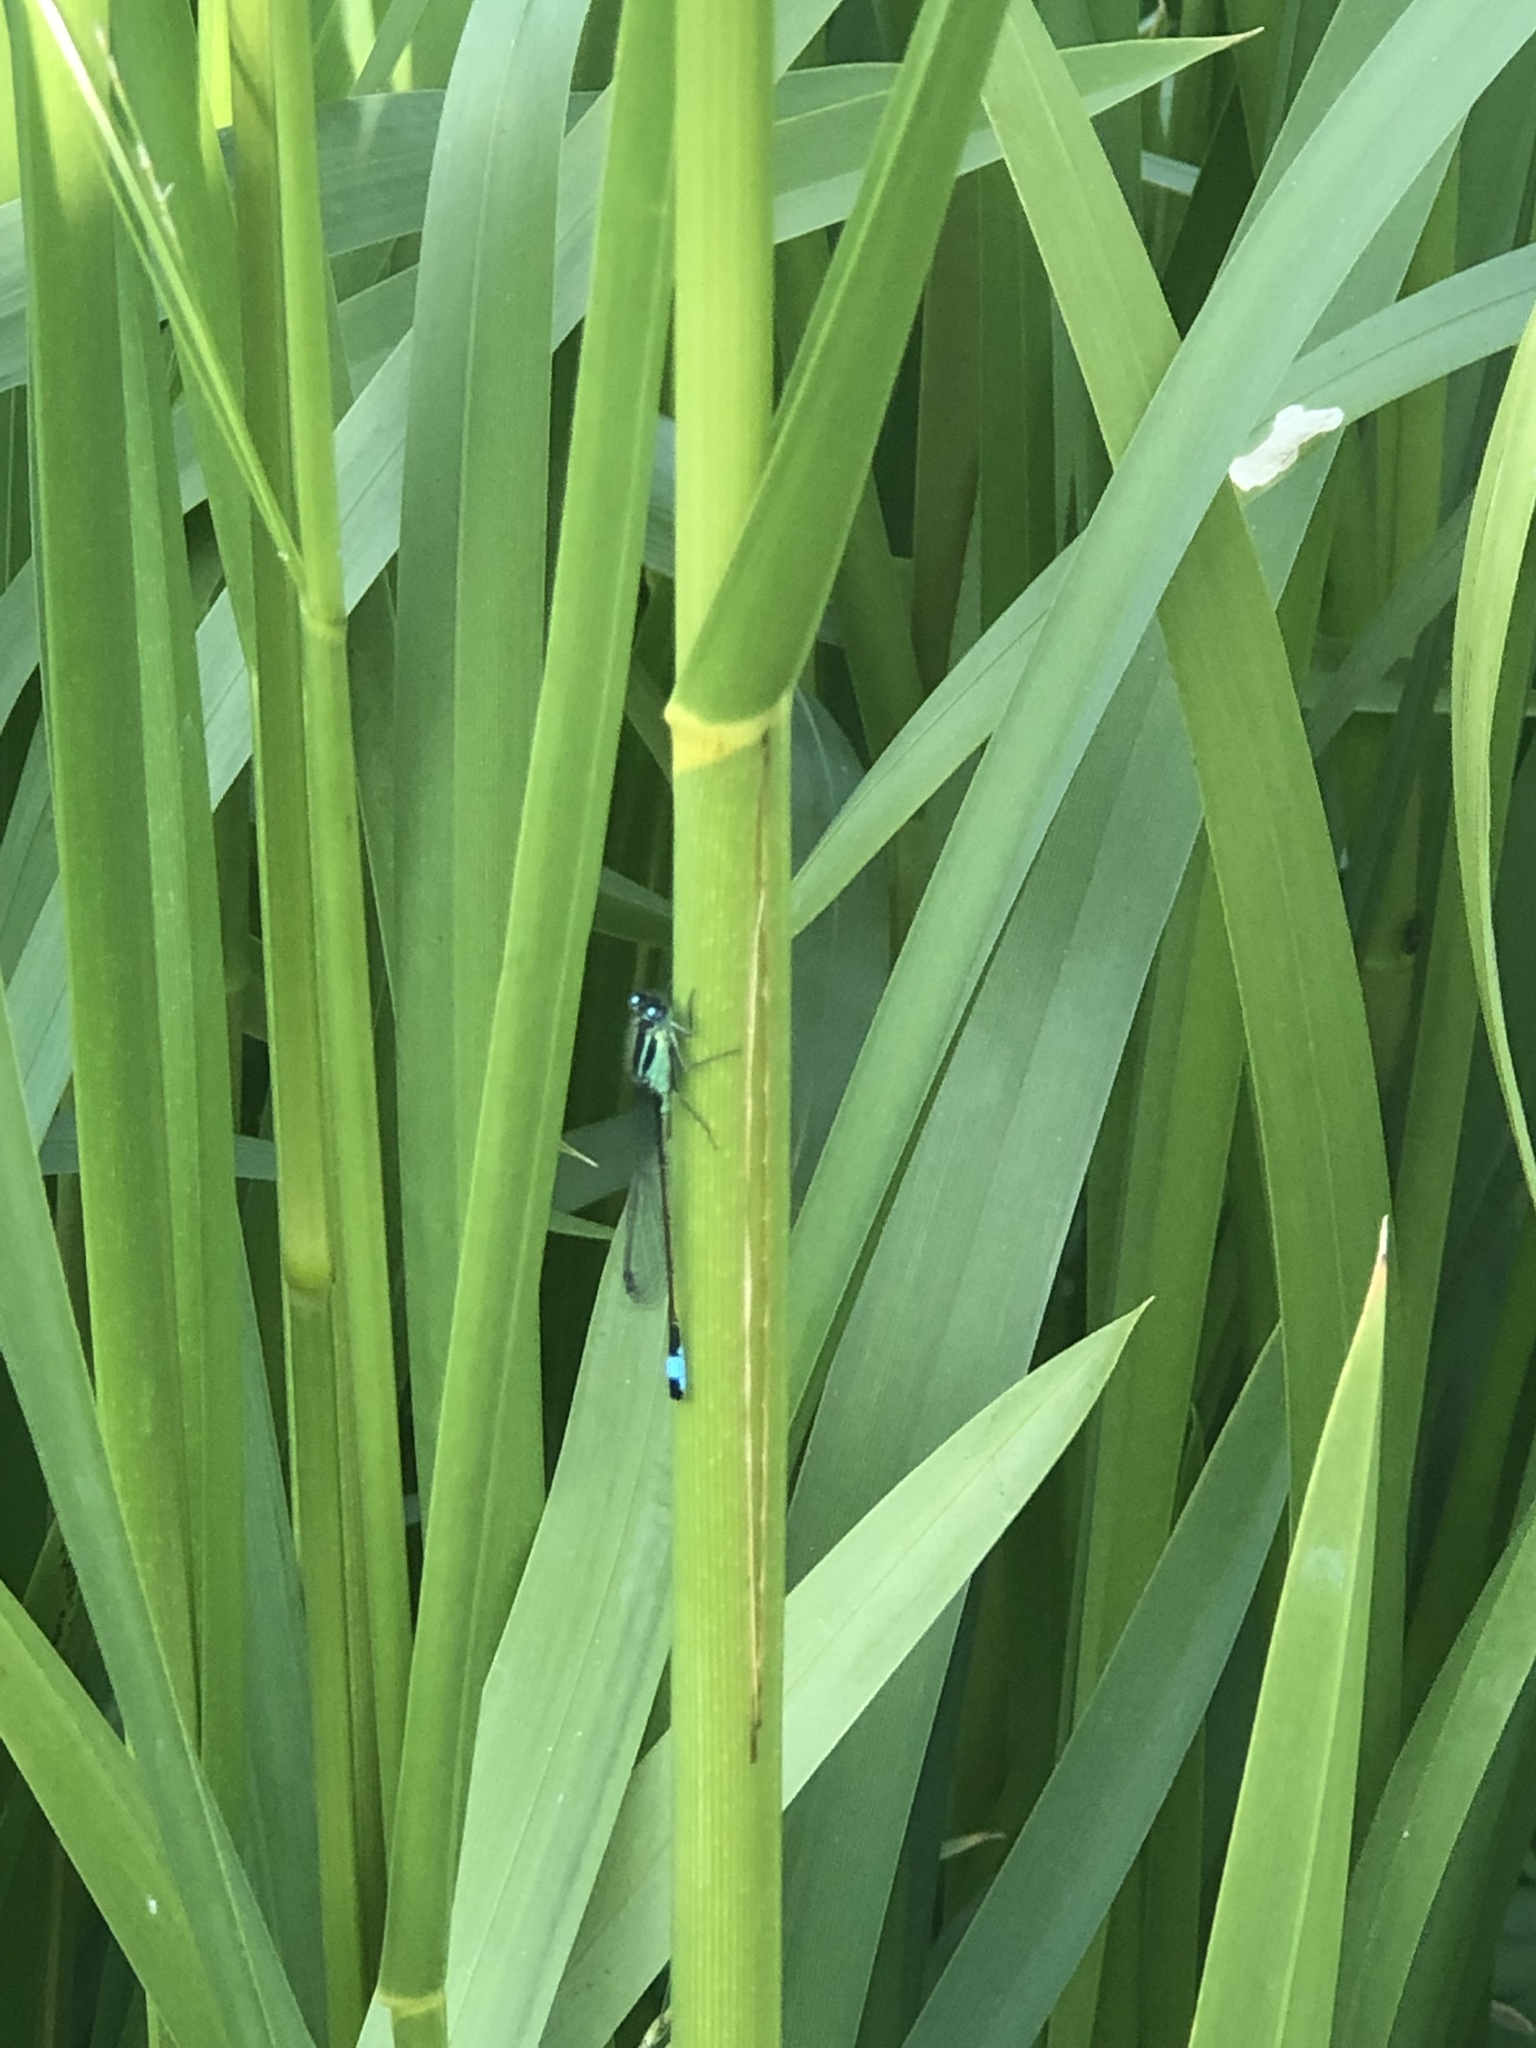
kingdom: Animalia
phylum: Arthropoda
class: Insecta
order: Odonata
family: Coenagrionidae
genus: Ischnura
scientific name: Ischnura elegans
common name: Blue-tailed damselfly
